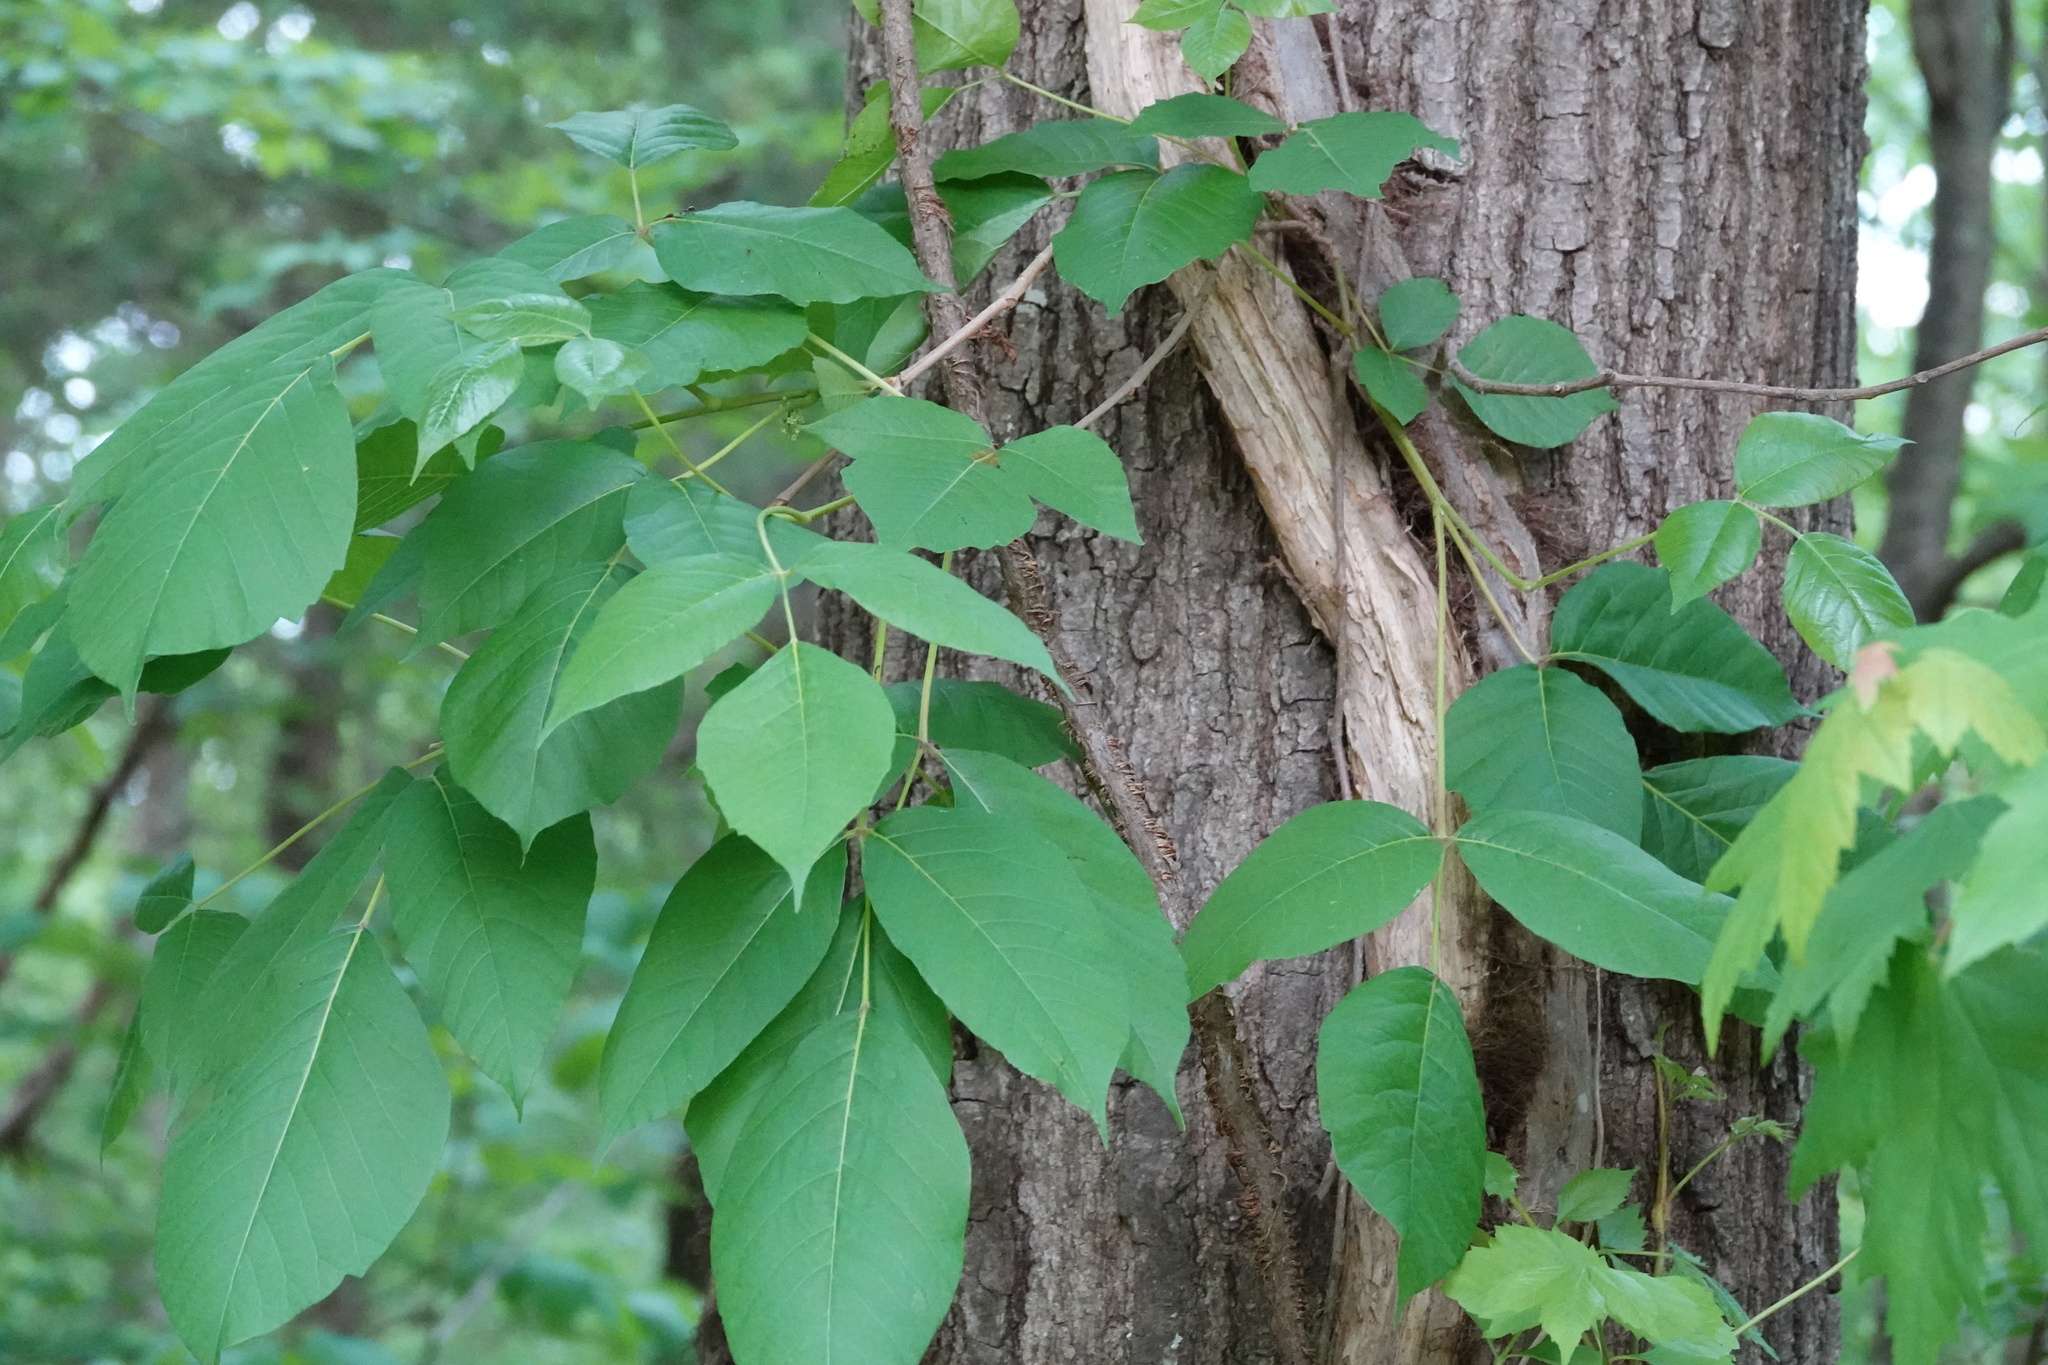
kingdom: Plantae
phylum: Tracheophyta
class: Magnoliopsida
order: Sapindales
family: Anacardiaceae
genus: Toxicodendron
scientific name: Toxicodendron radicans
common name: Poison ivy
